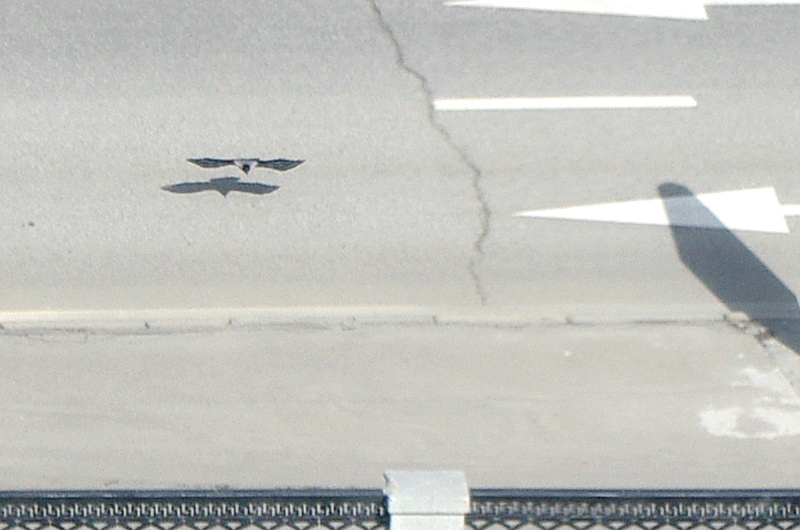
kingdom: Animalia
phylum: Chordata
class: Aves
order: Passeriformes
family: Corvidae
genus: Corvus
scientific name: Corvus cornix
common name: Hooded crow
